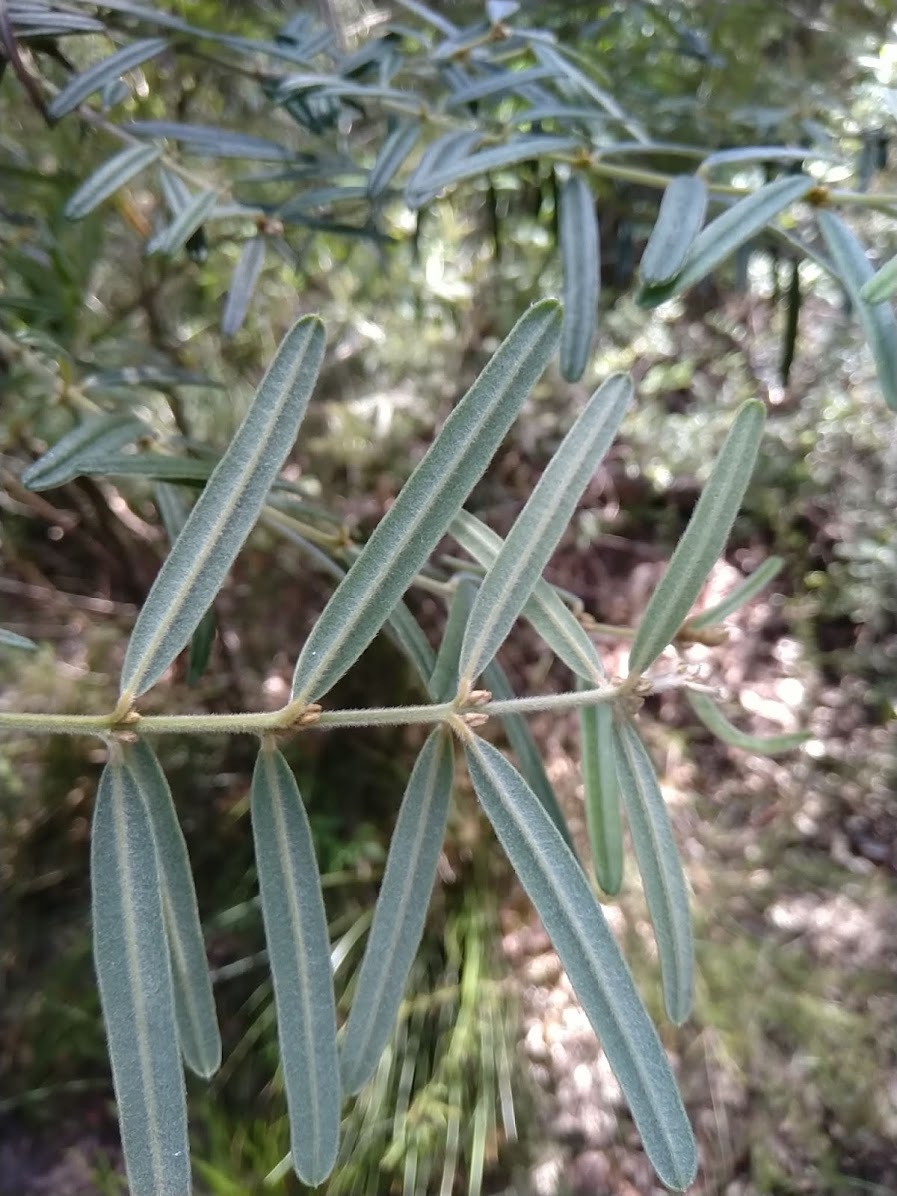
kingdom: Plantae
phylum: Tracheophyta
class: Magnoliopsida
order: Fabales
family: Fabaceae
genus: Oxylobium
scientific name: Oxylobium robustum
